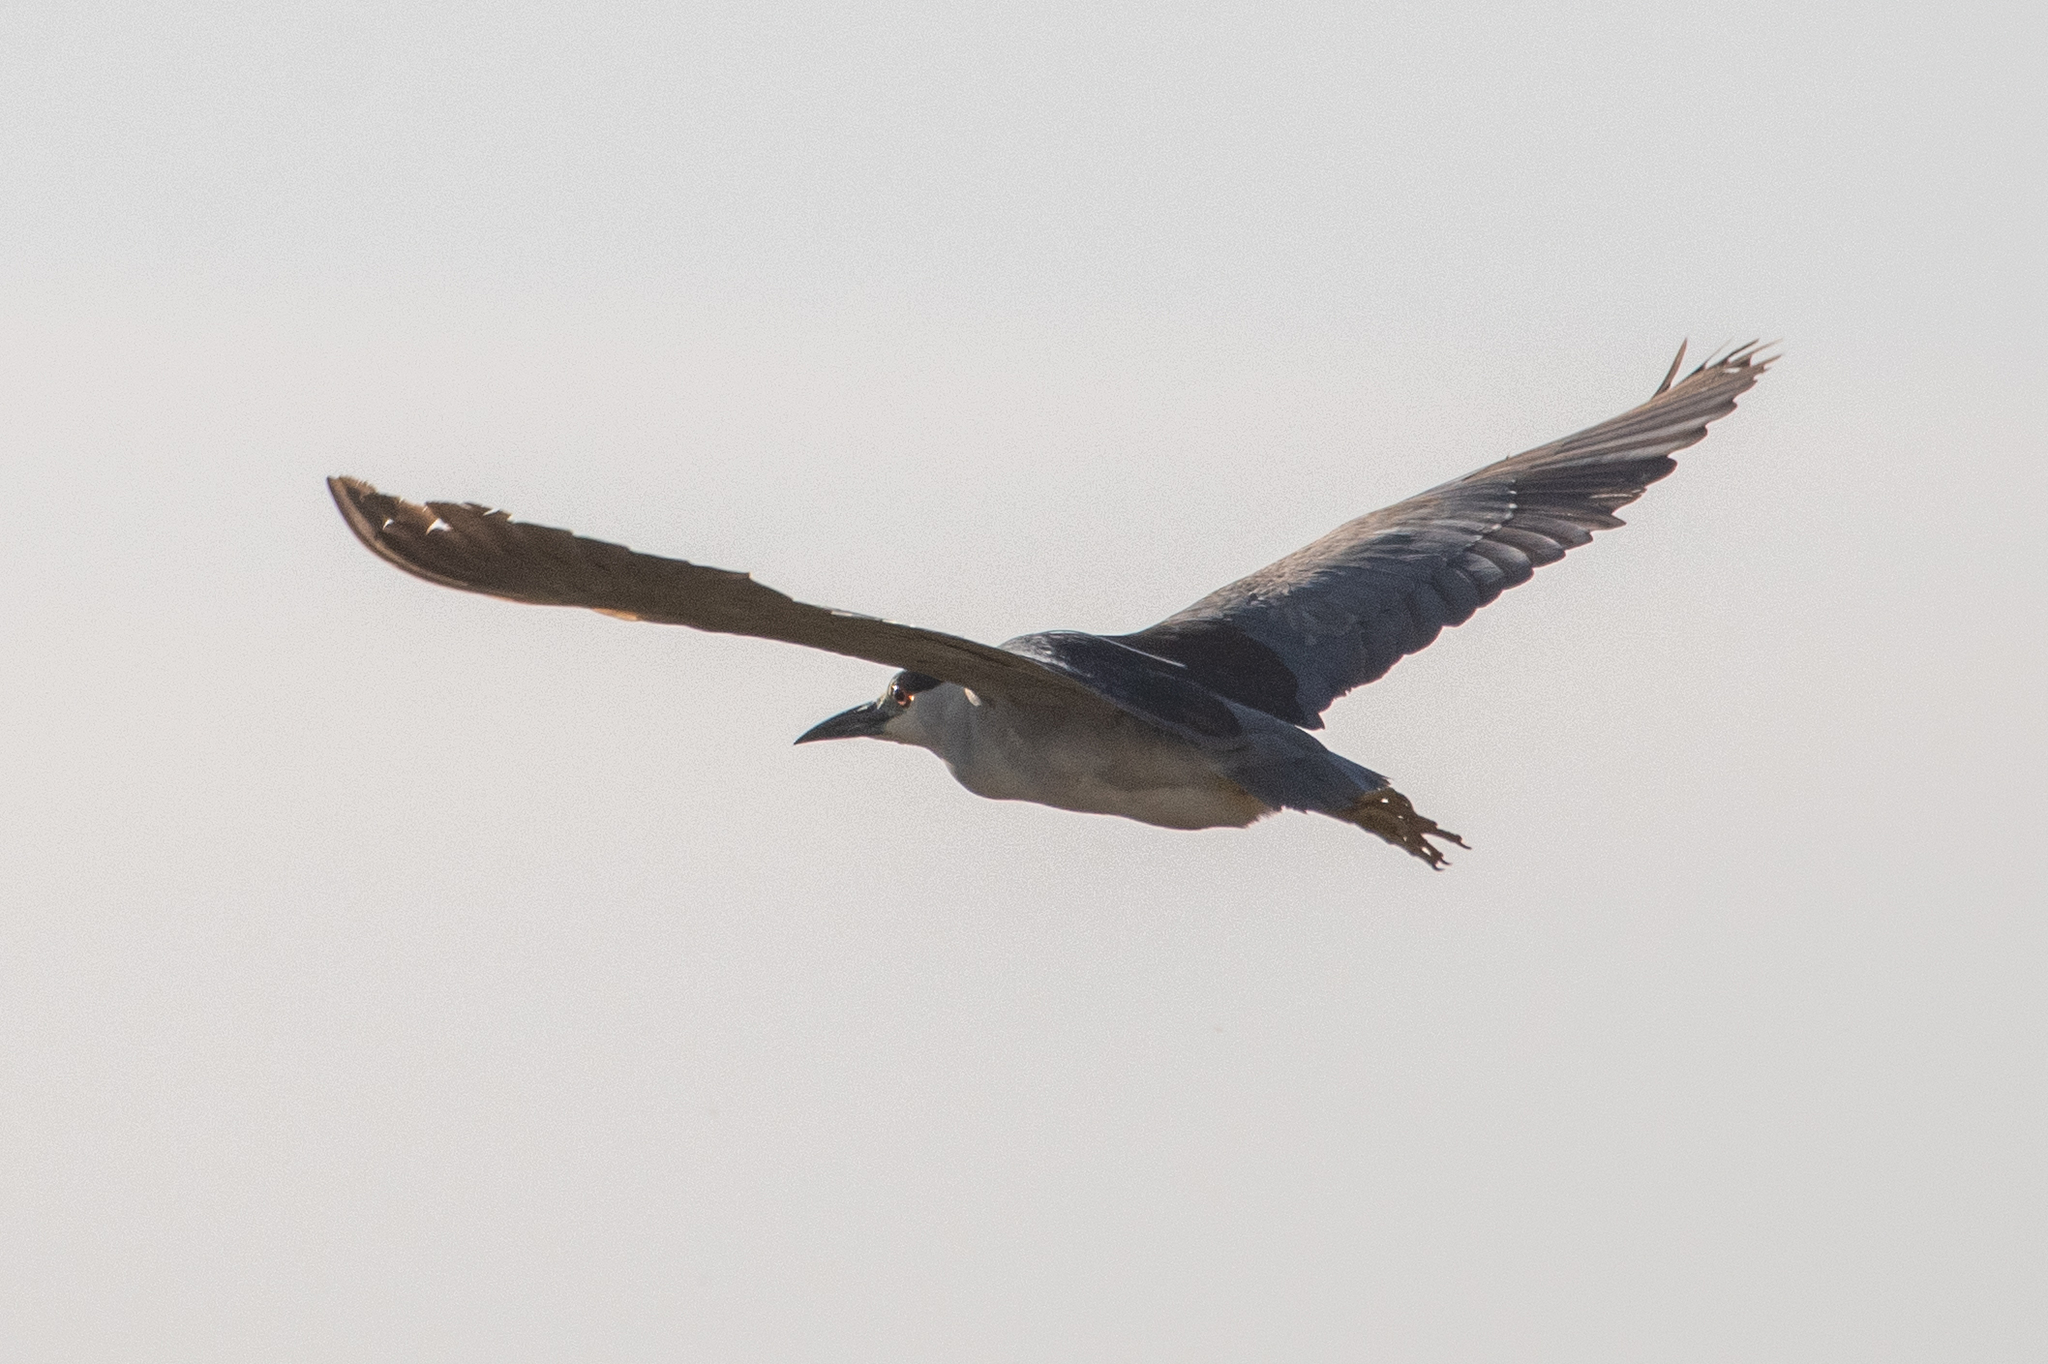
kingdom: Animalia
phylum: Chordata
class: Aves
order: Pelecaniformes
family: Ardeidae
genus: Nycticorax
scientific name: Nycticorax nycticorax
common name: Black-crowned night heron
